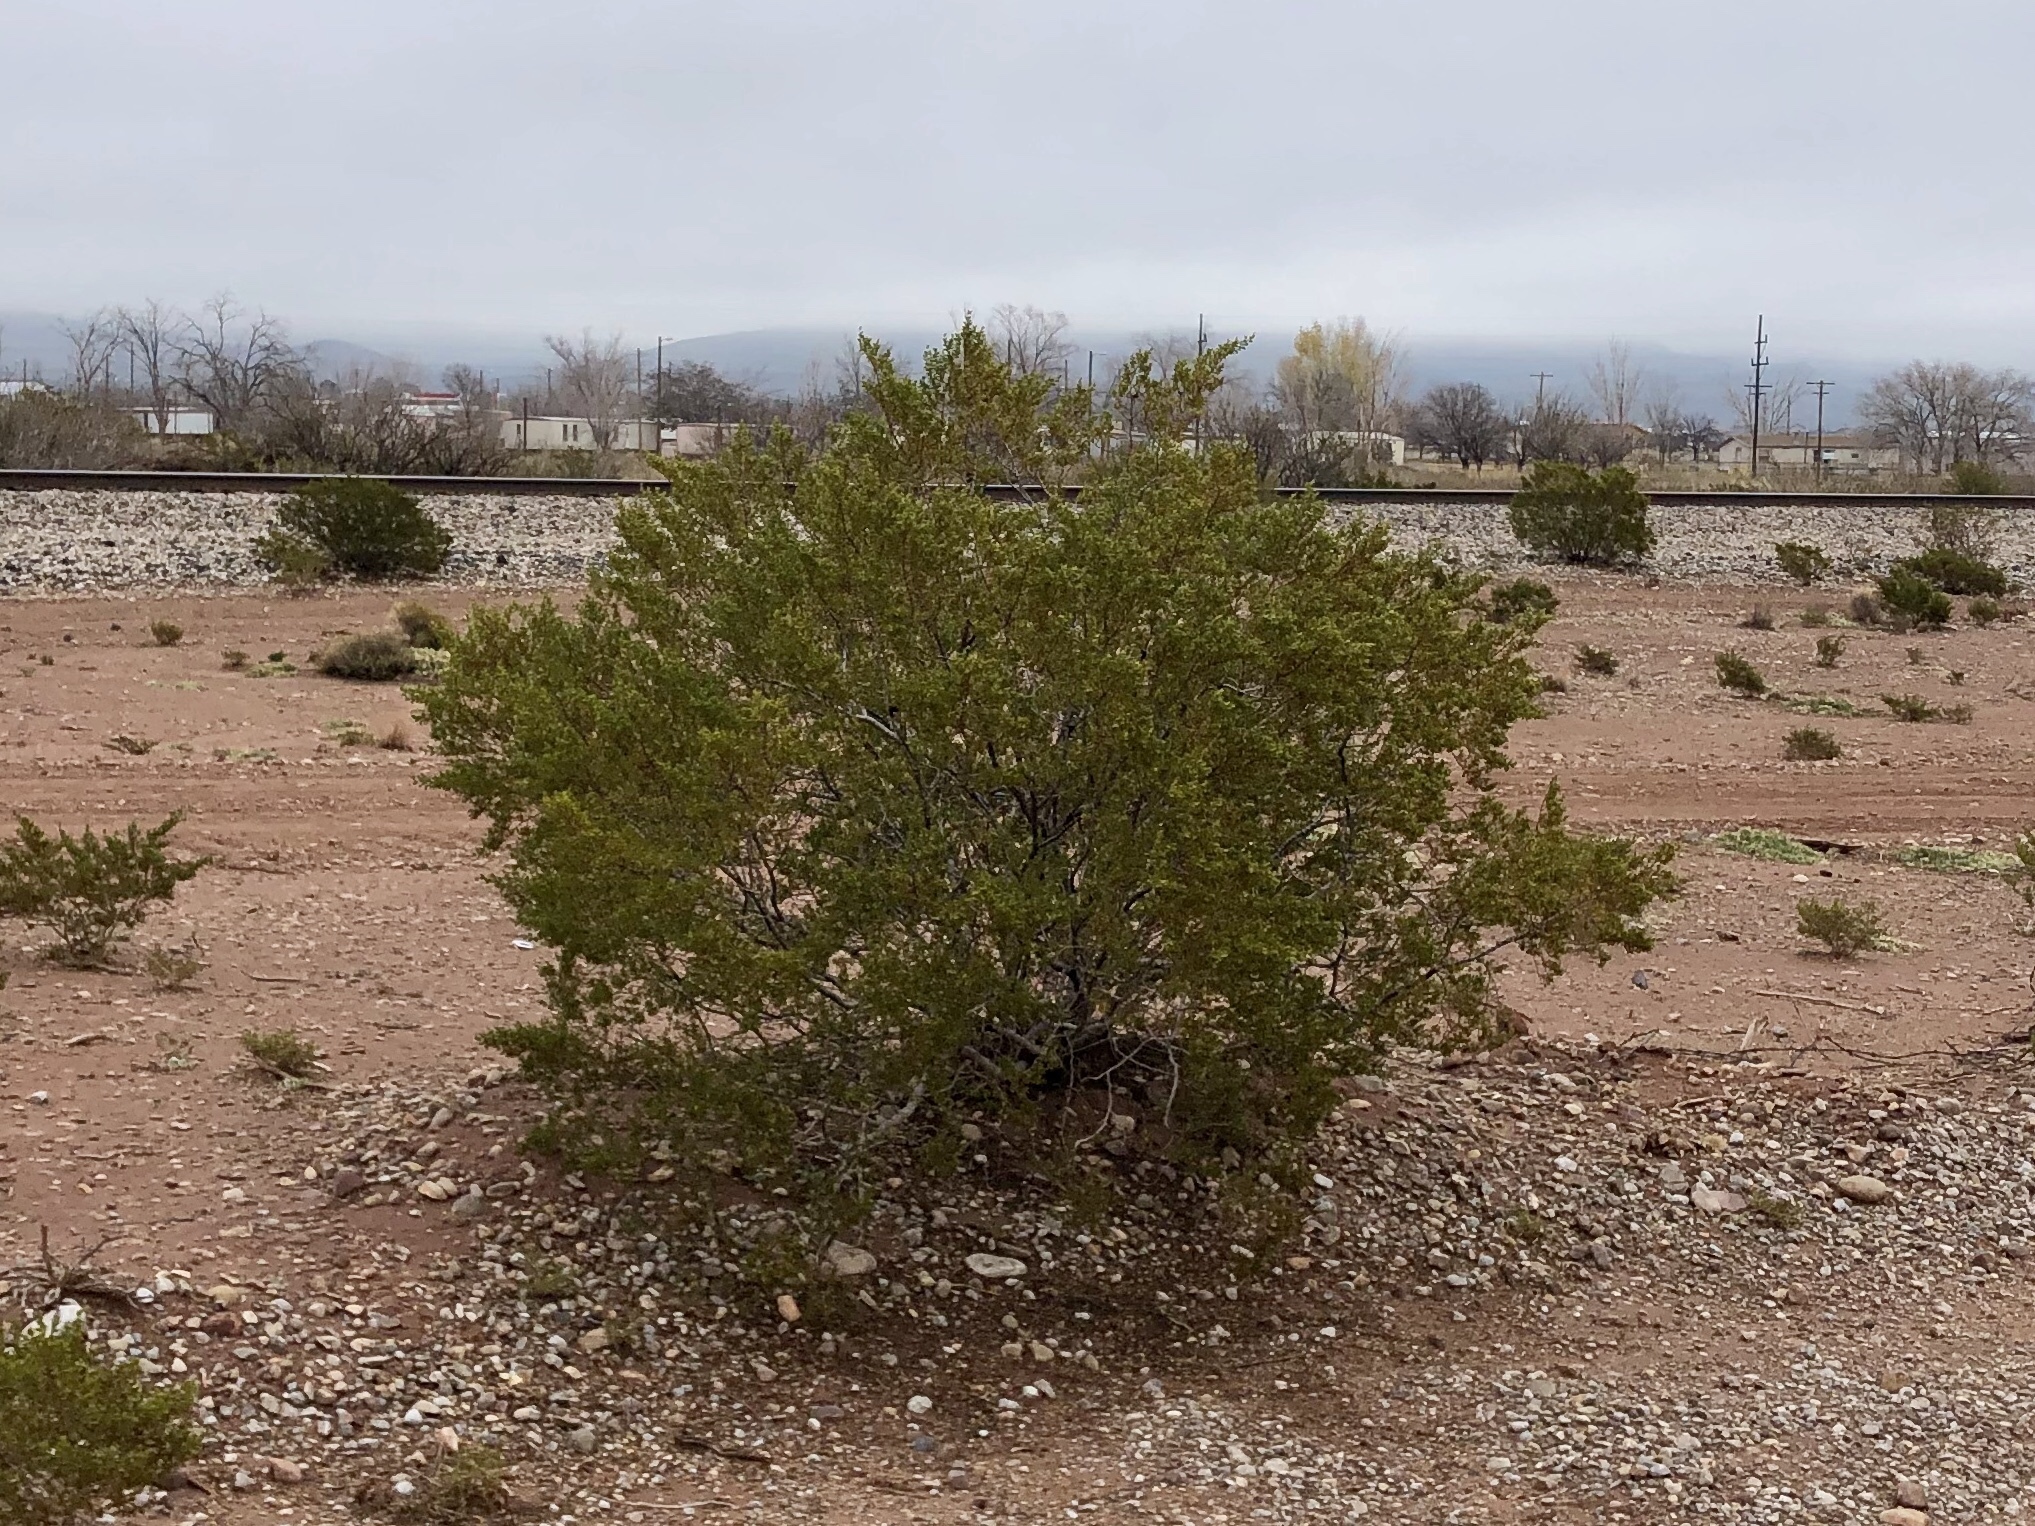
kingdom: Plantae
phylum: Tracheophyta
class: Magnoliopsida
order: Zygophyllales
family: Zygophyllaceae
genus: Larrea
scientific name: Larrea tridentata
